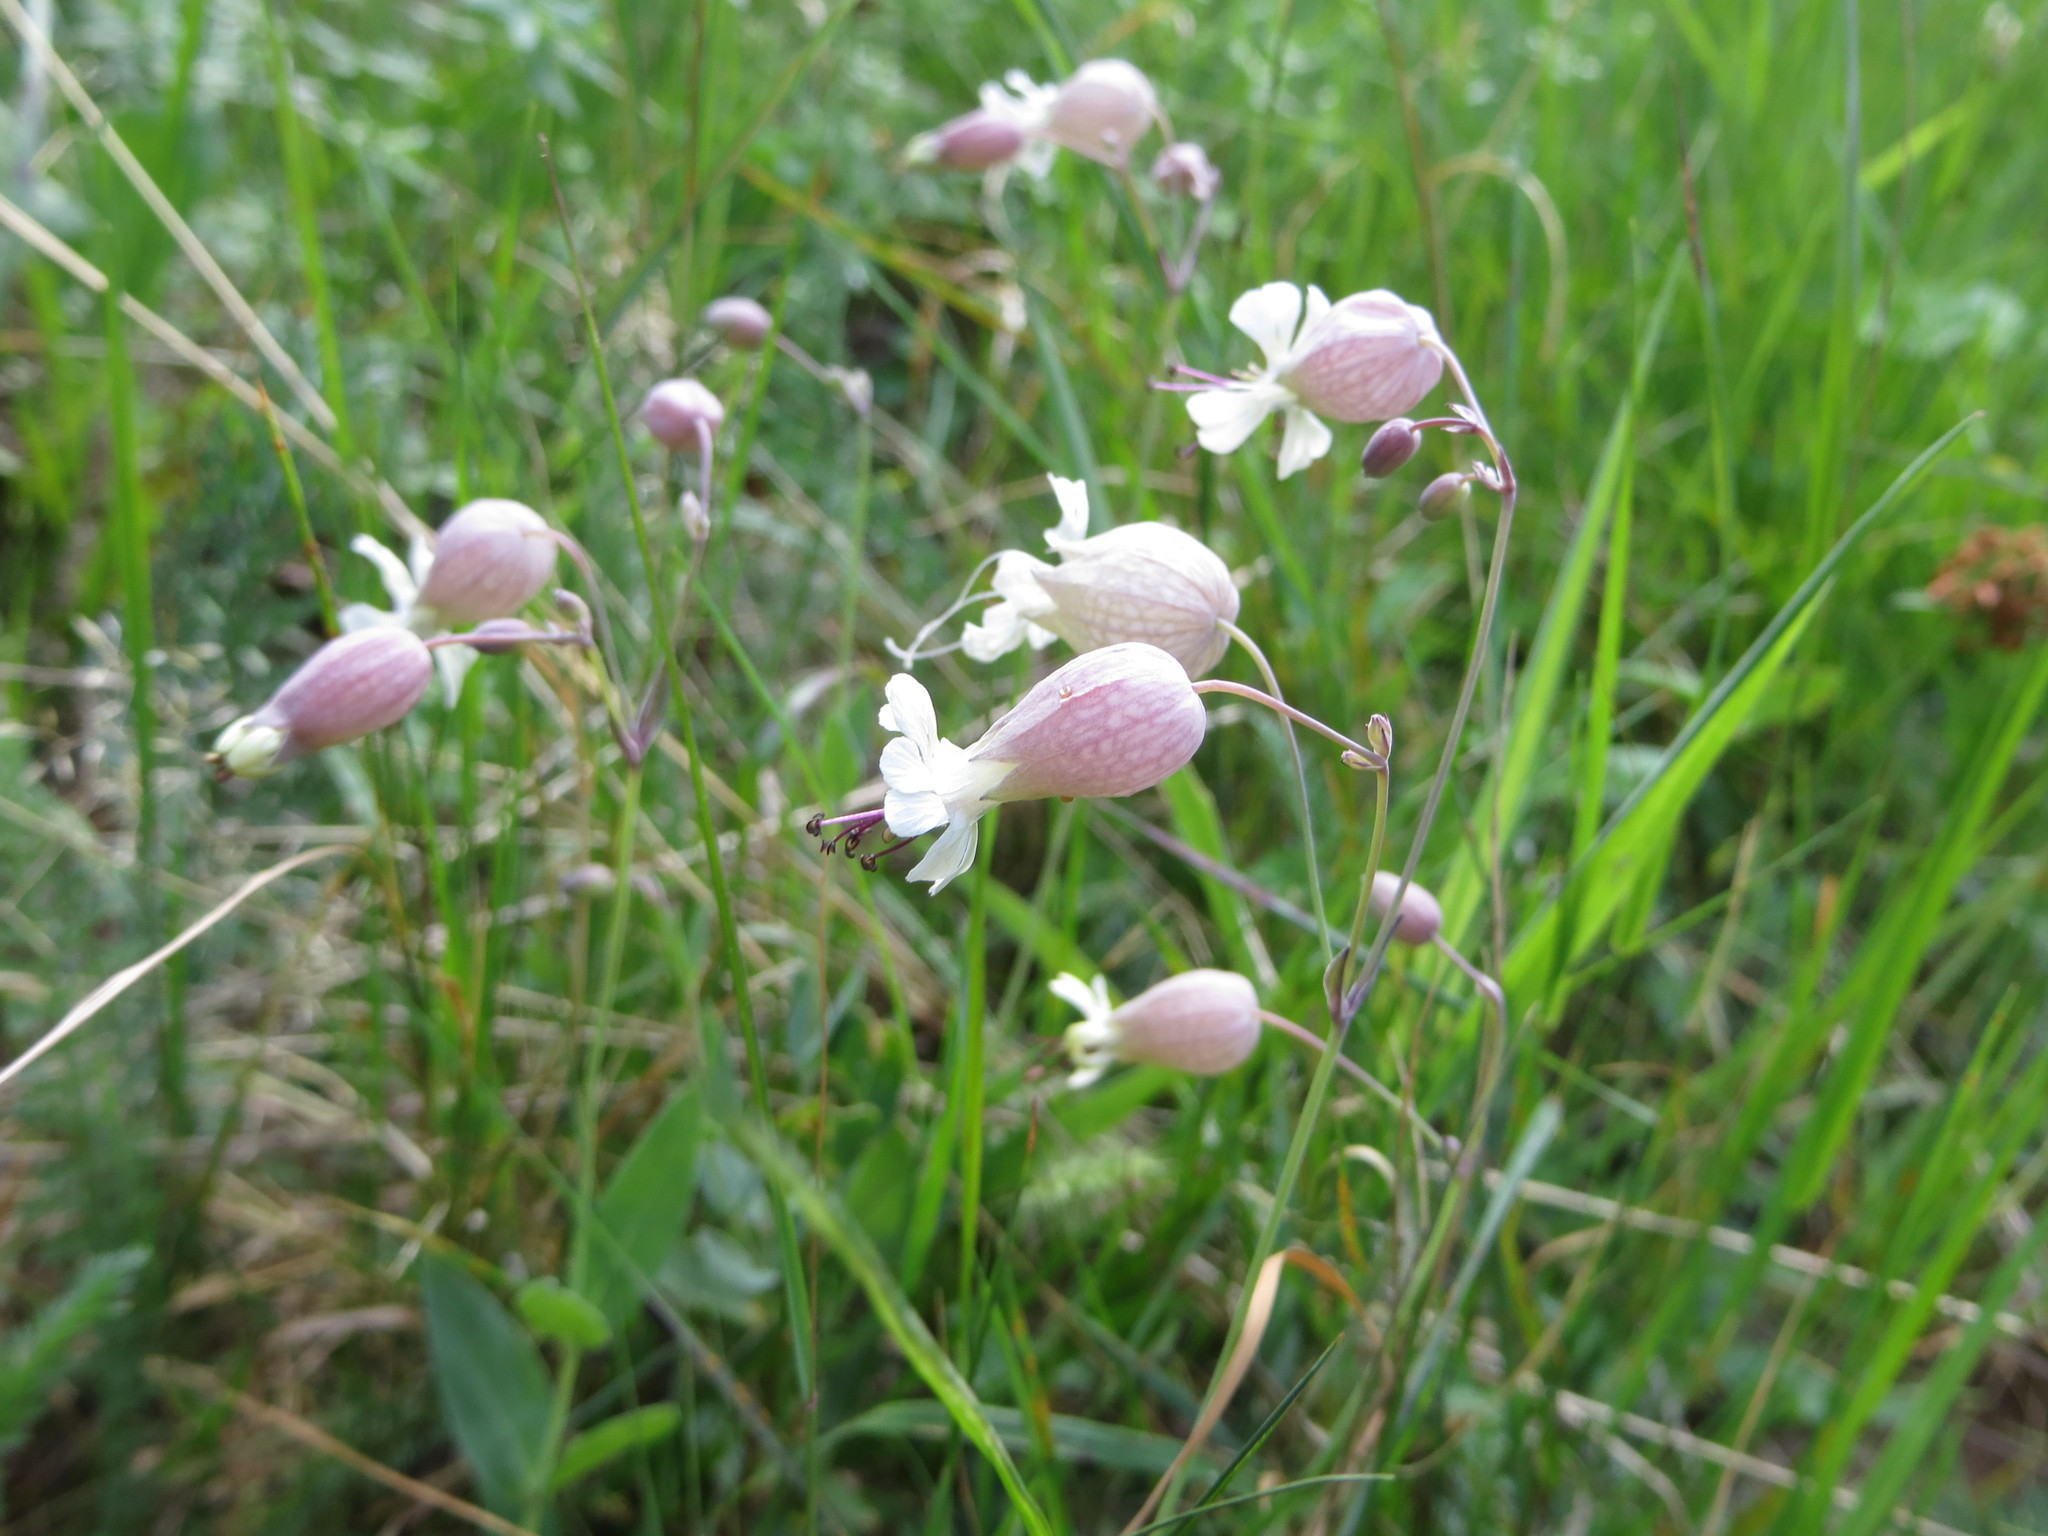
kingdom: Plantae
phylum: Tracheophyta
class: Magnoliopsida
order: Caryophyllales
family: Caryophyllaceae
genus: Silene
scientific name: Silene vulgaris
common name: Bladder campion
